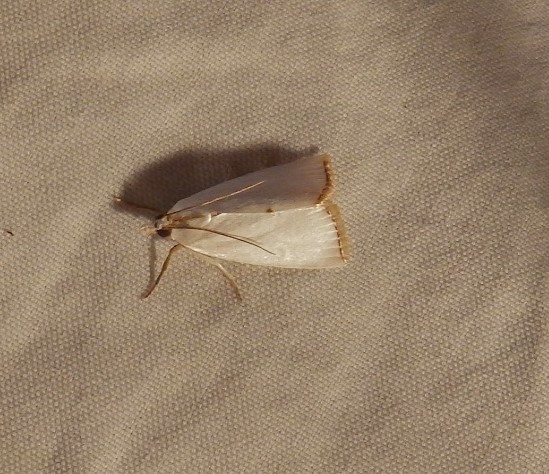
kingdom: Animalia
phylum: Arthropoda
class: Insecta
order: Lepidoptera
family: Crambidae
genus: Argyria
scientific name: Argyria nivalis
